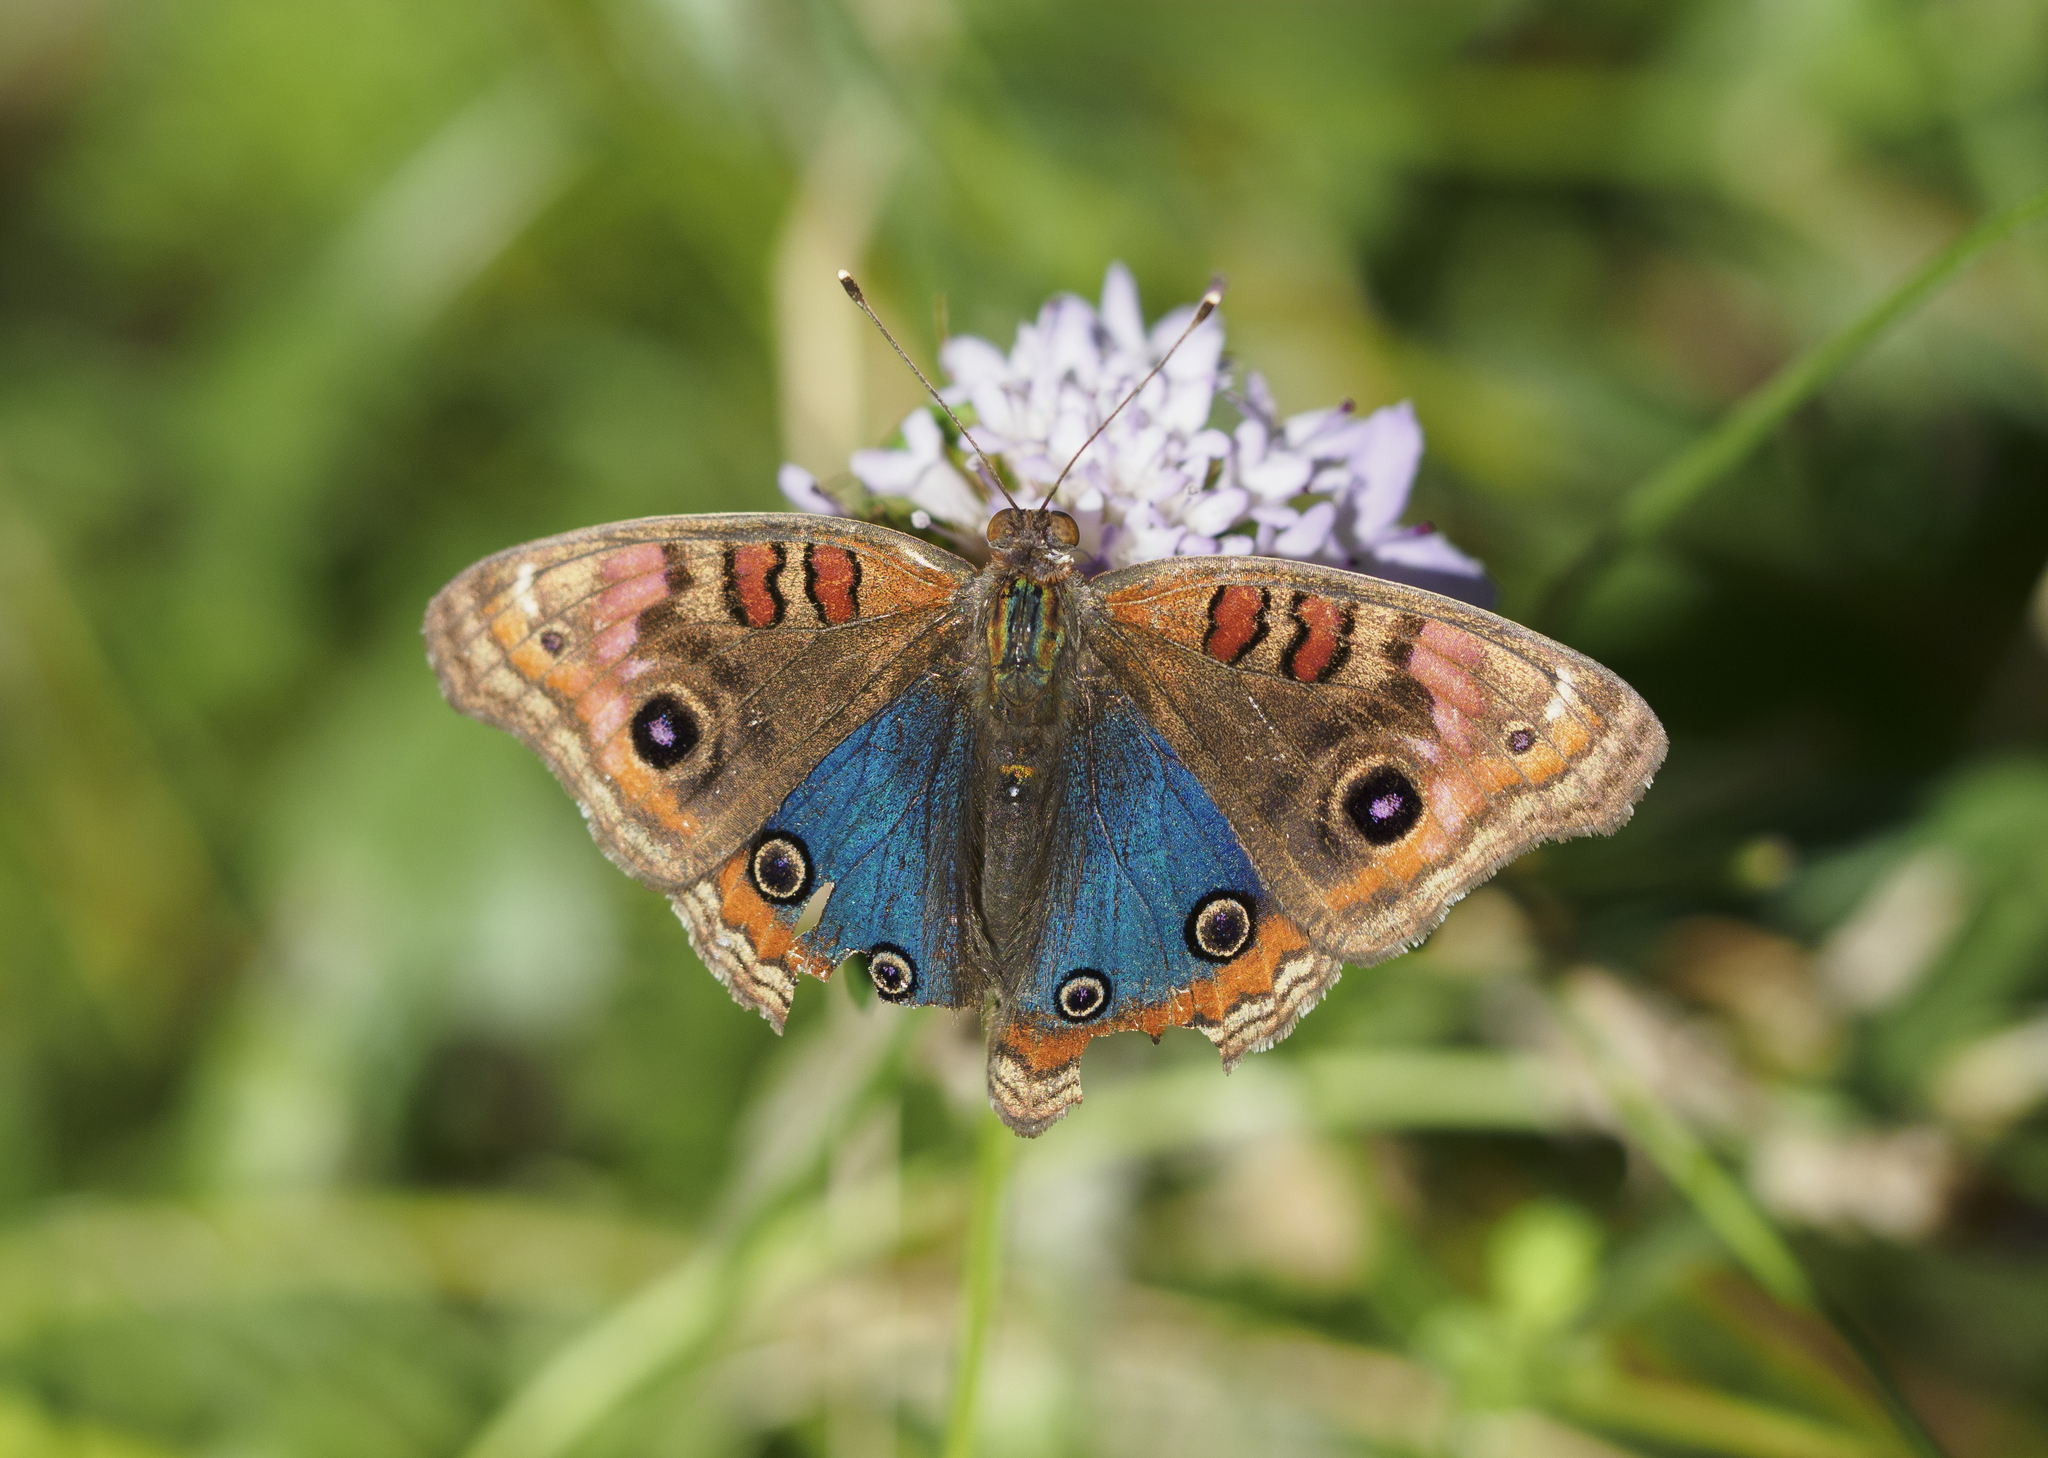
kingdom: Animalia
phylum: Arthropoda
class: Insecta
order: Lepidoptera
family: Nymphalidae
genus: Junonia
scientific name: Junonia lavinia
